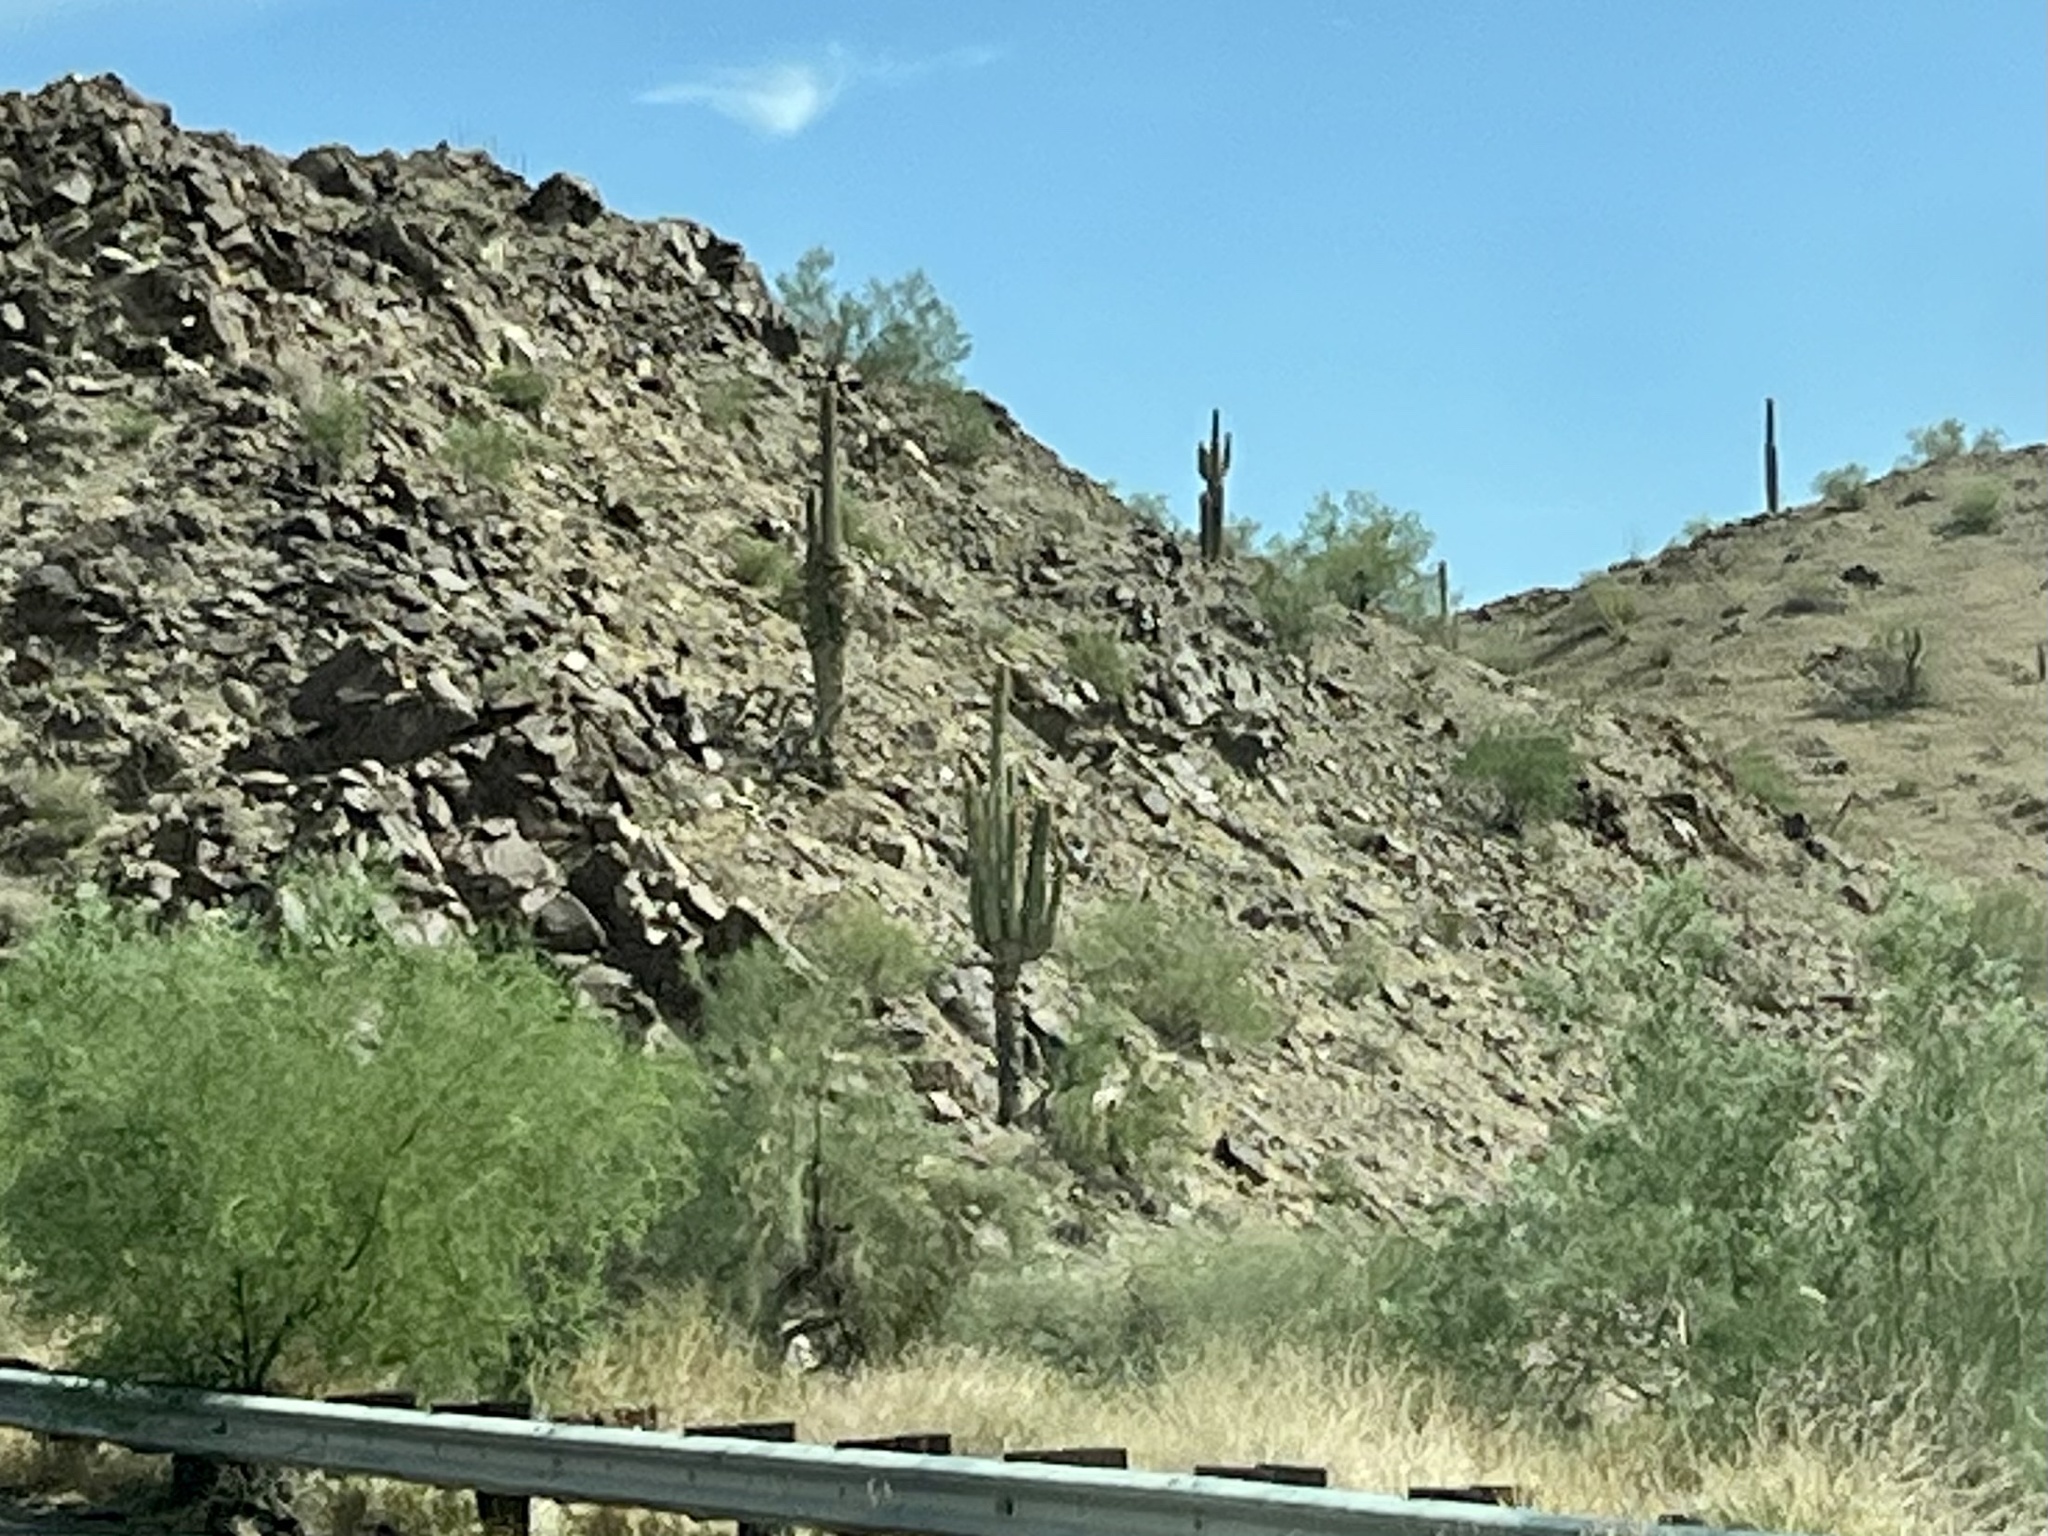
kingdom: Plantae
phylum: Tracheophyta
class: Magnoliopsida
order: Caryophyllales
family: Cactaceae
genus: Carnegiea
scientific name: Carnegiea gigantea
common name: Saguaro
